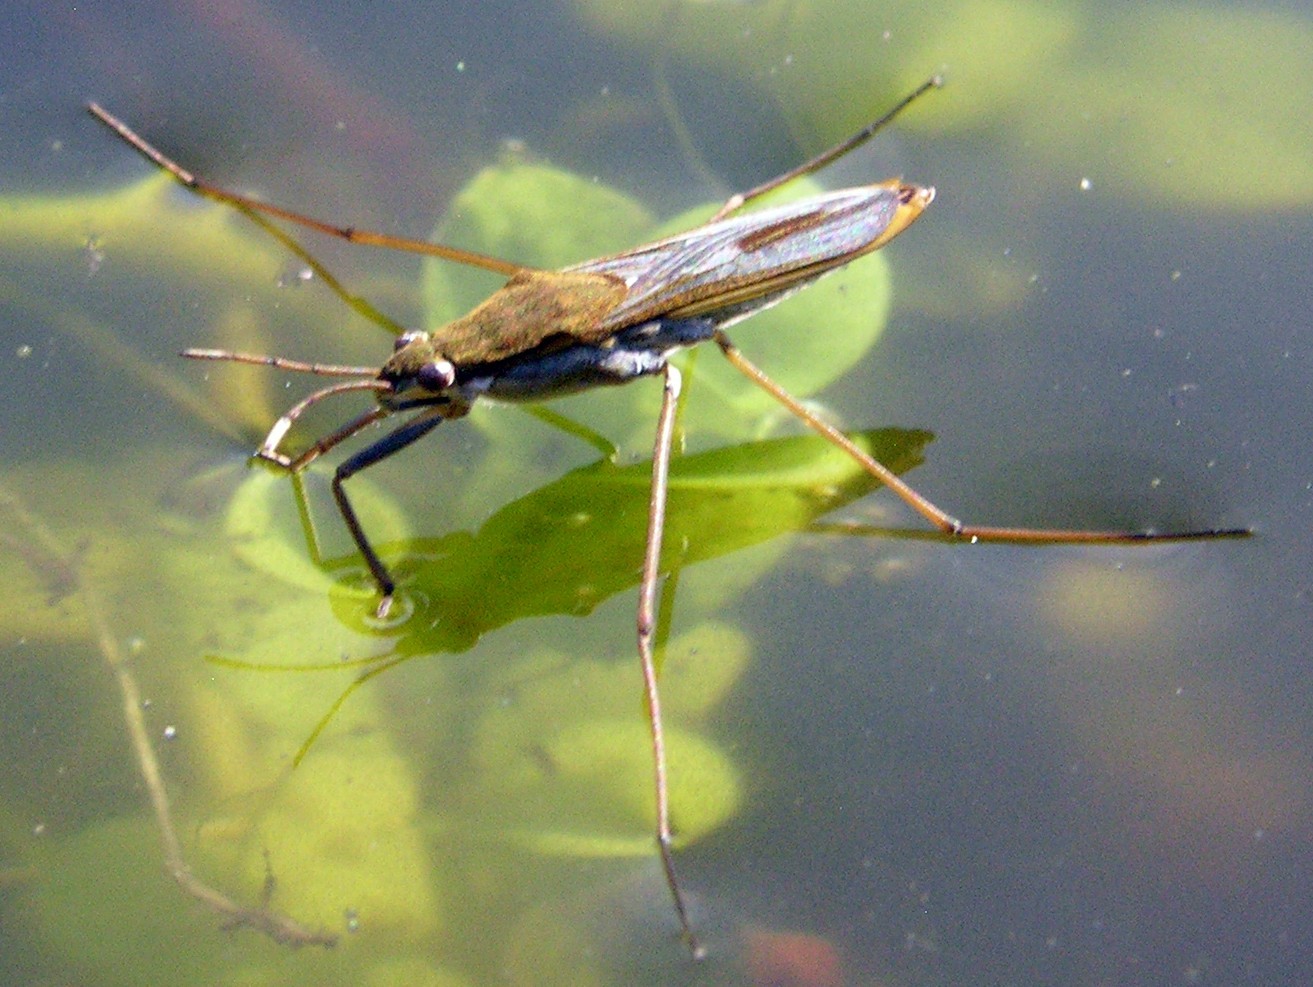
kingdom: Animalia
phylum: Arthropoda
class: Insecta
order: Hemiptera
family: Gerridae
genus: Gerris
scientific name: Gerris thoracicus
